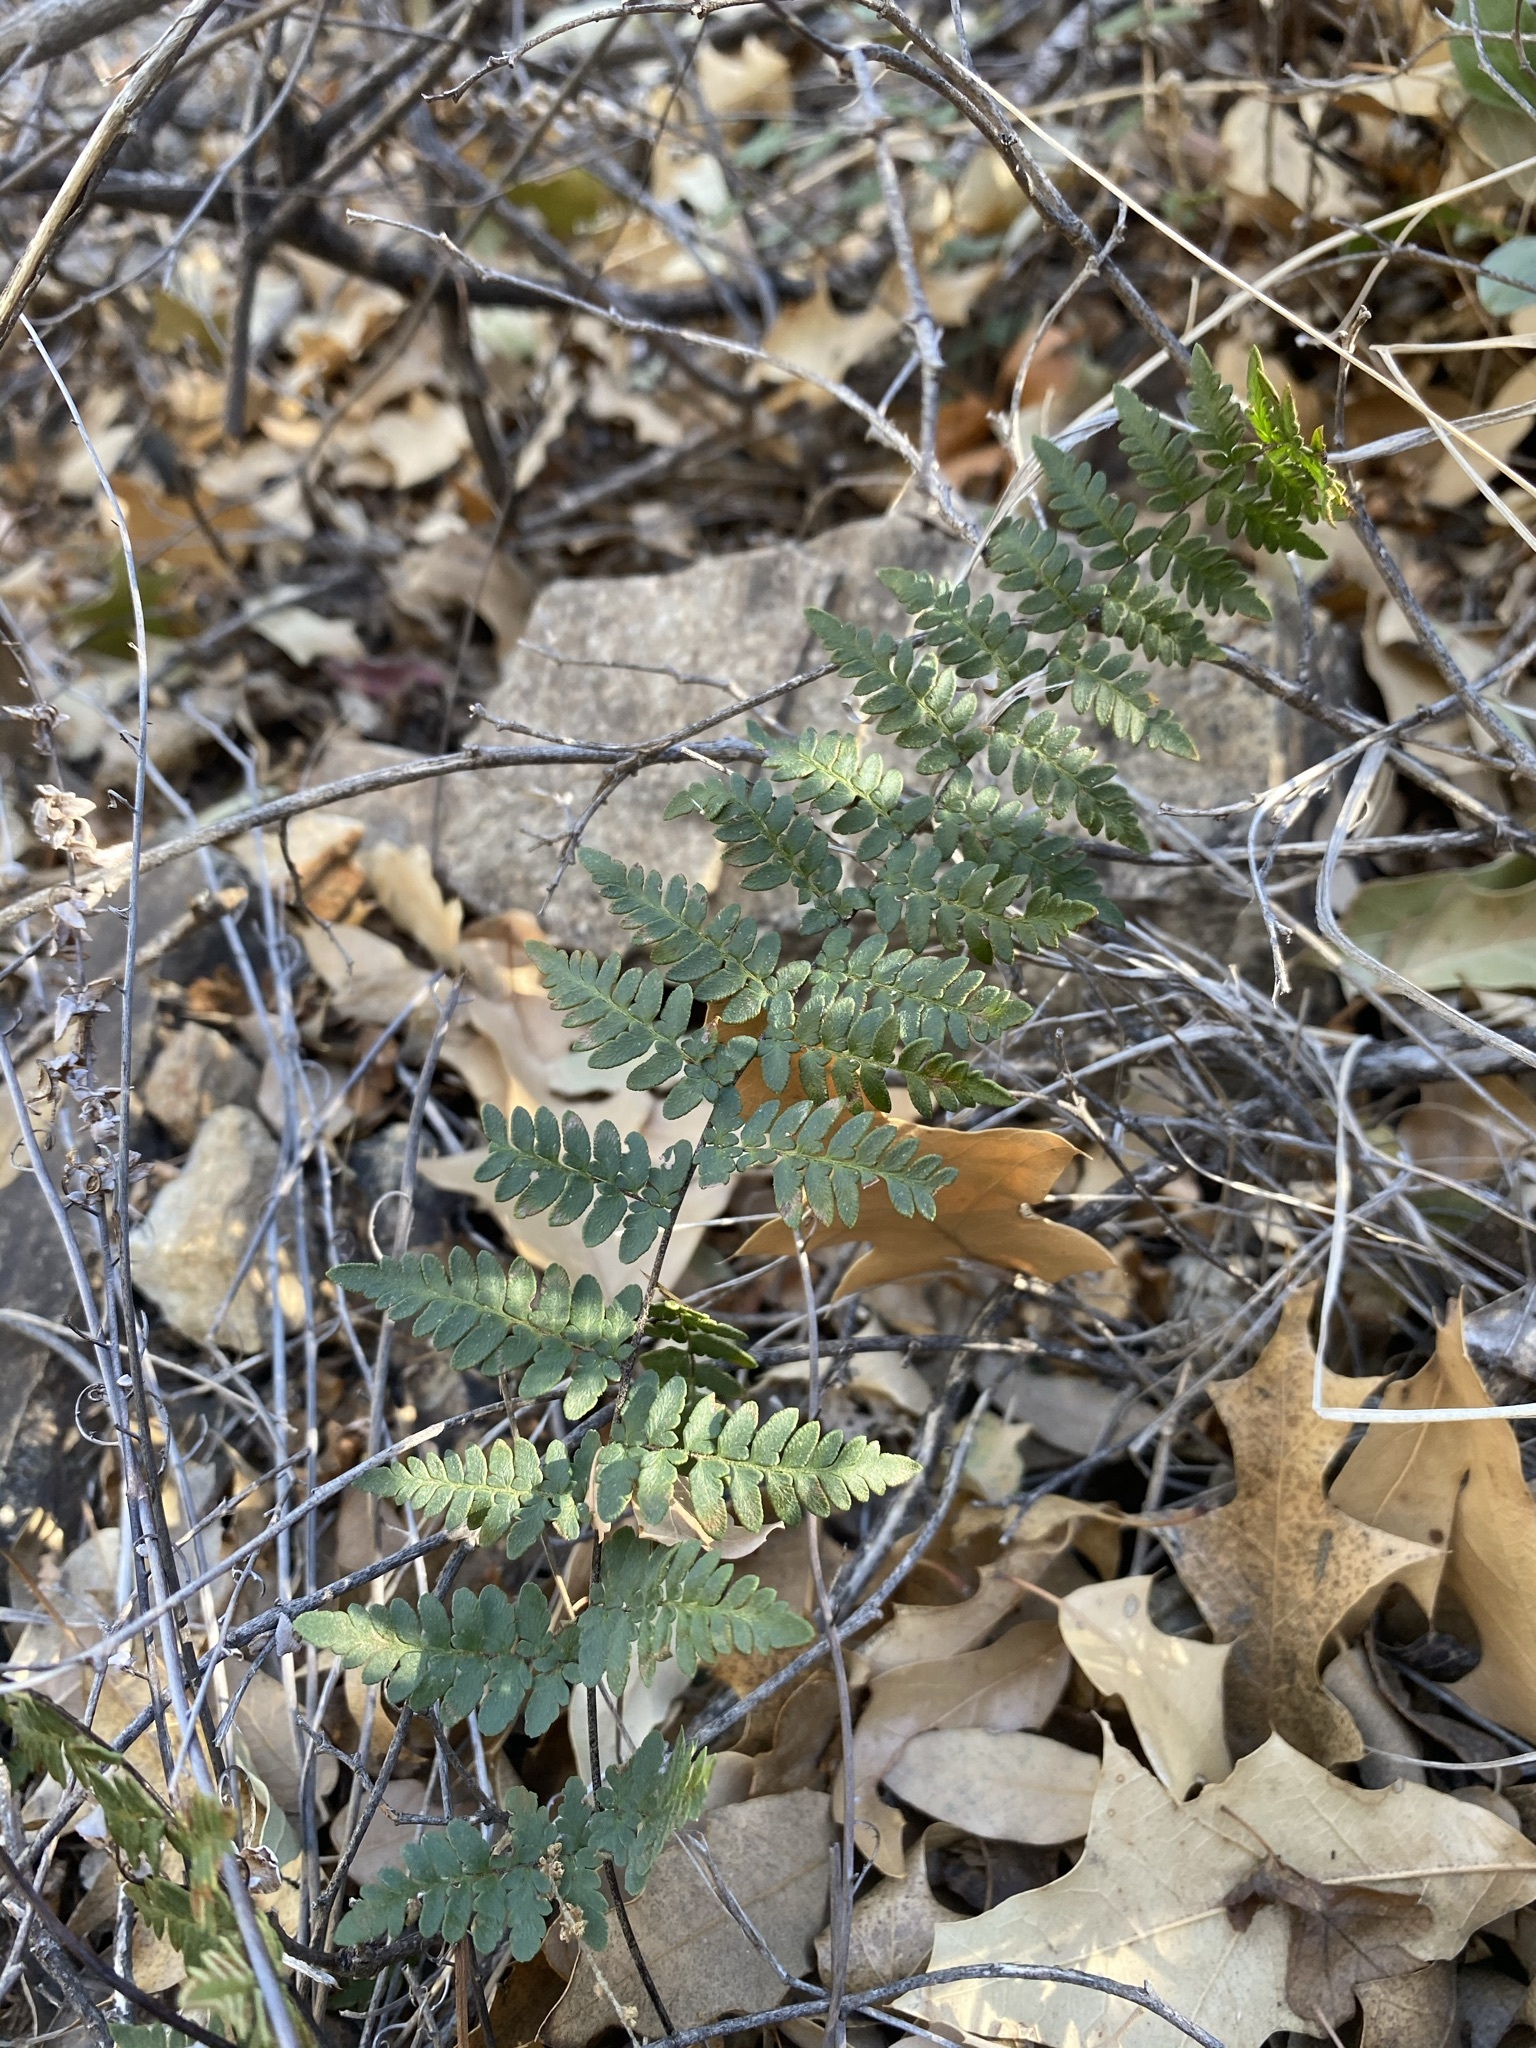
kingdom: Plantae
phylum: Tracheophyta
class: Polypodiopsida
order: Polypodiales
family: Pteridaceae
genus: Myriopteris
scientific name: Myriopteris alabamensis
